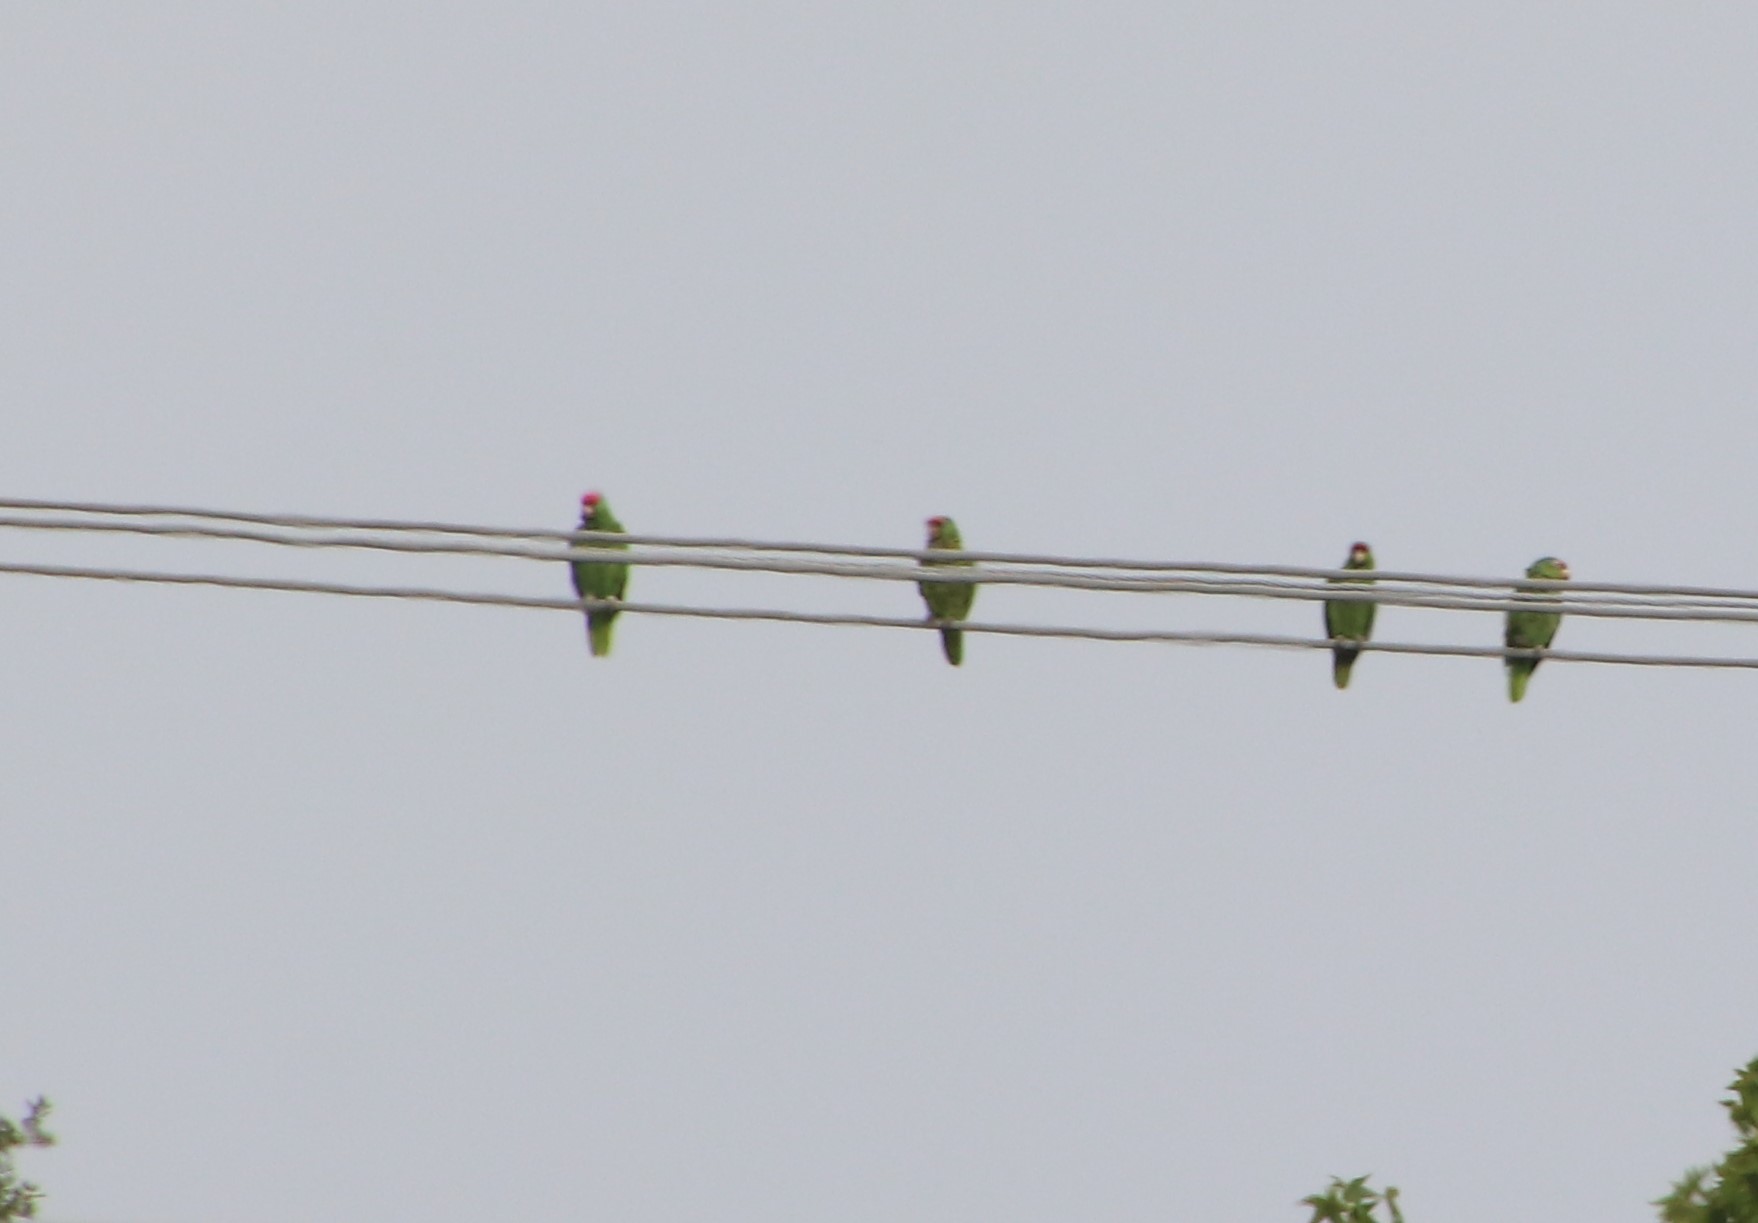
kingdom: Animalia
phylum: Chordata
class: Aves
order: Psittaciformes
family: Psittacidae
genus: Amazona
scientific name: Amazona viridigenalis
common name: Red-crowned amazon
